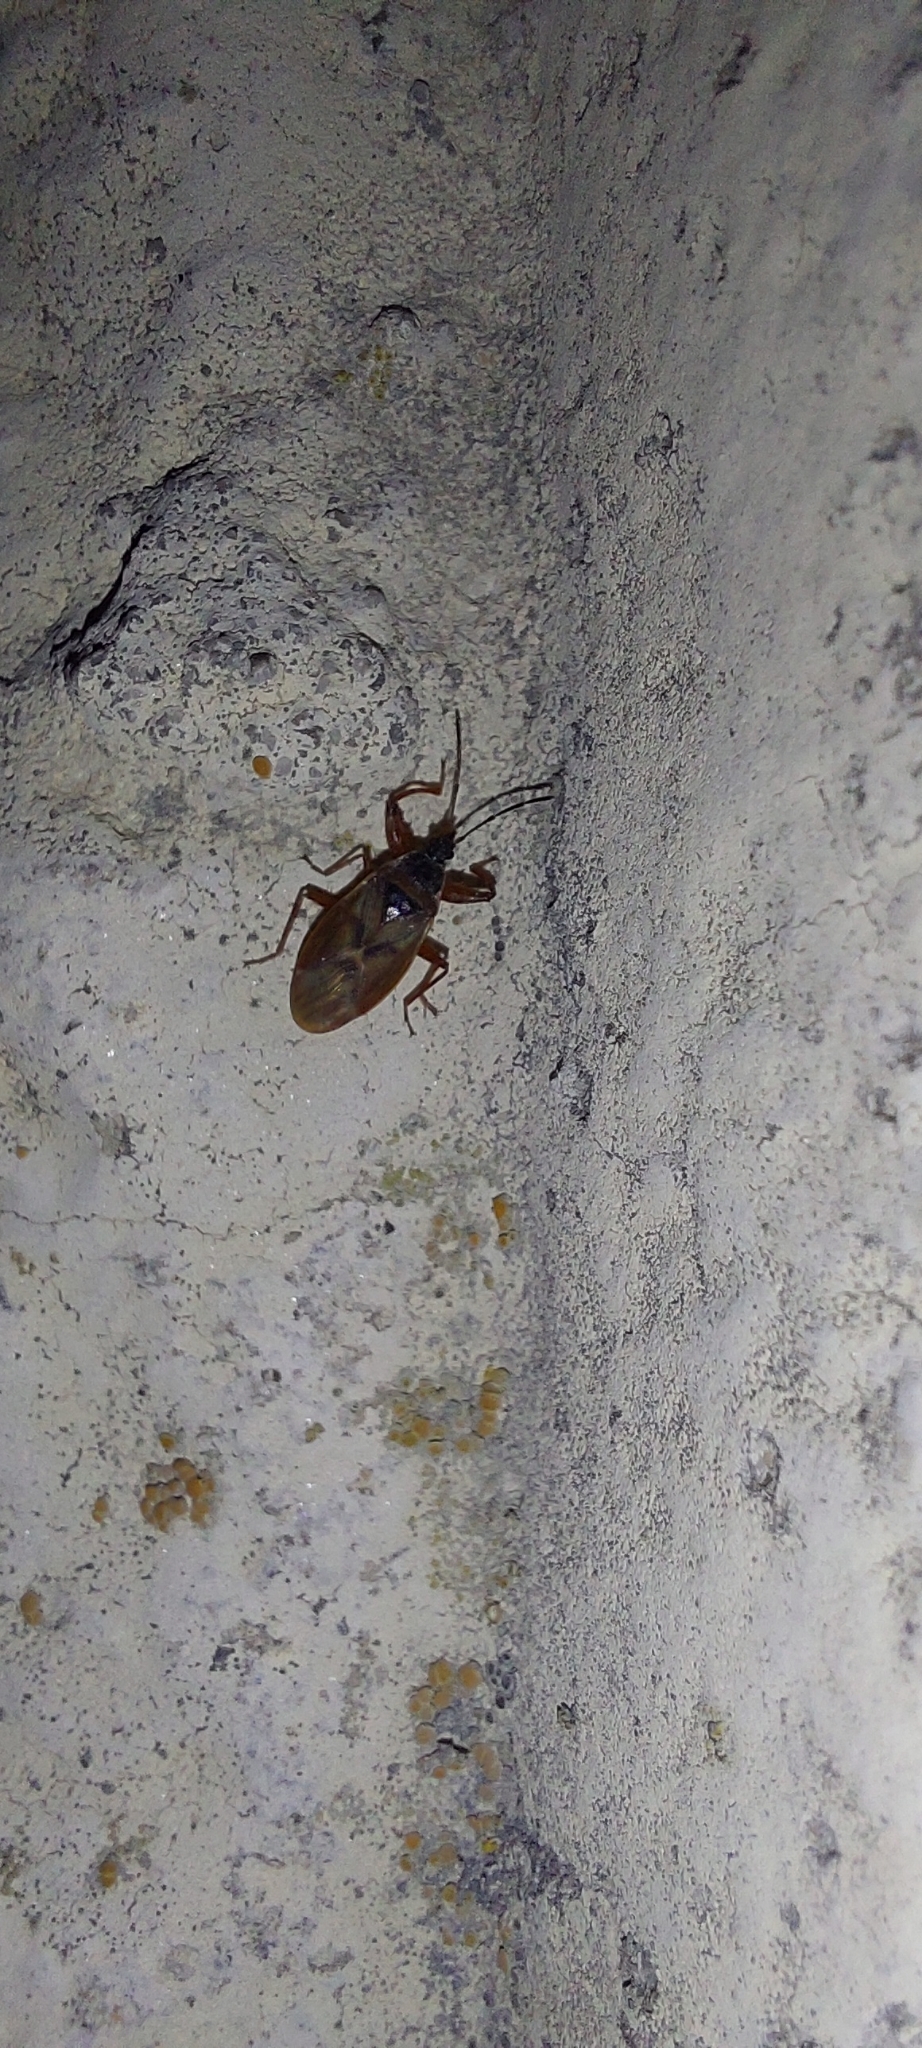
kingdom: Animalia
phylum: Arthropoda
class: Insecta
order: Hemiptera
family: Rhyparochromidae
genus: Gastrodes
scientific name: Gastrodes abietum
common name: Spruce cone bug
